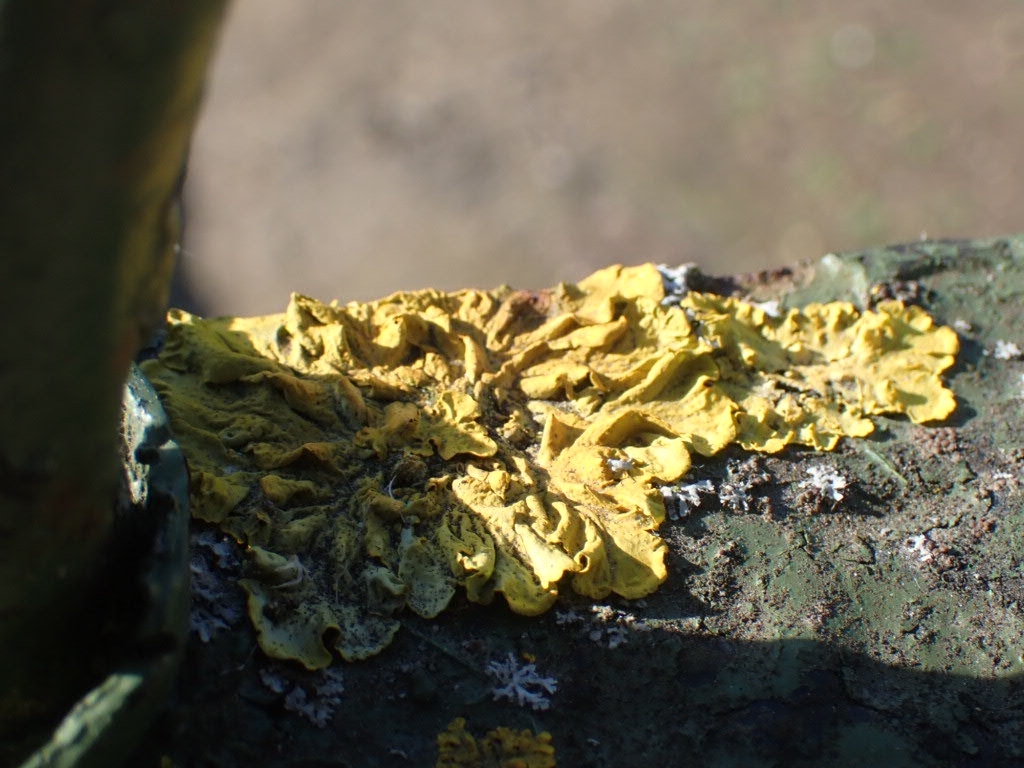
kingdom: Fungi
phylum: Ascomycota
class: Lecanoromycetes
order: Teloschistales
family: Teloschistaceae
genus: Xanthoria
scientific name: Xanthoria parietina
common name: Common orange lichen
